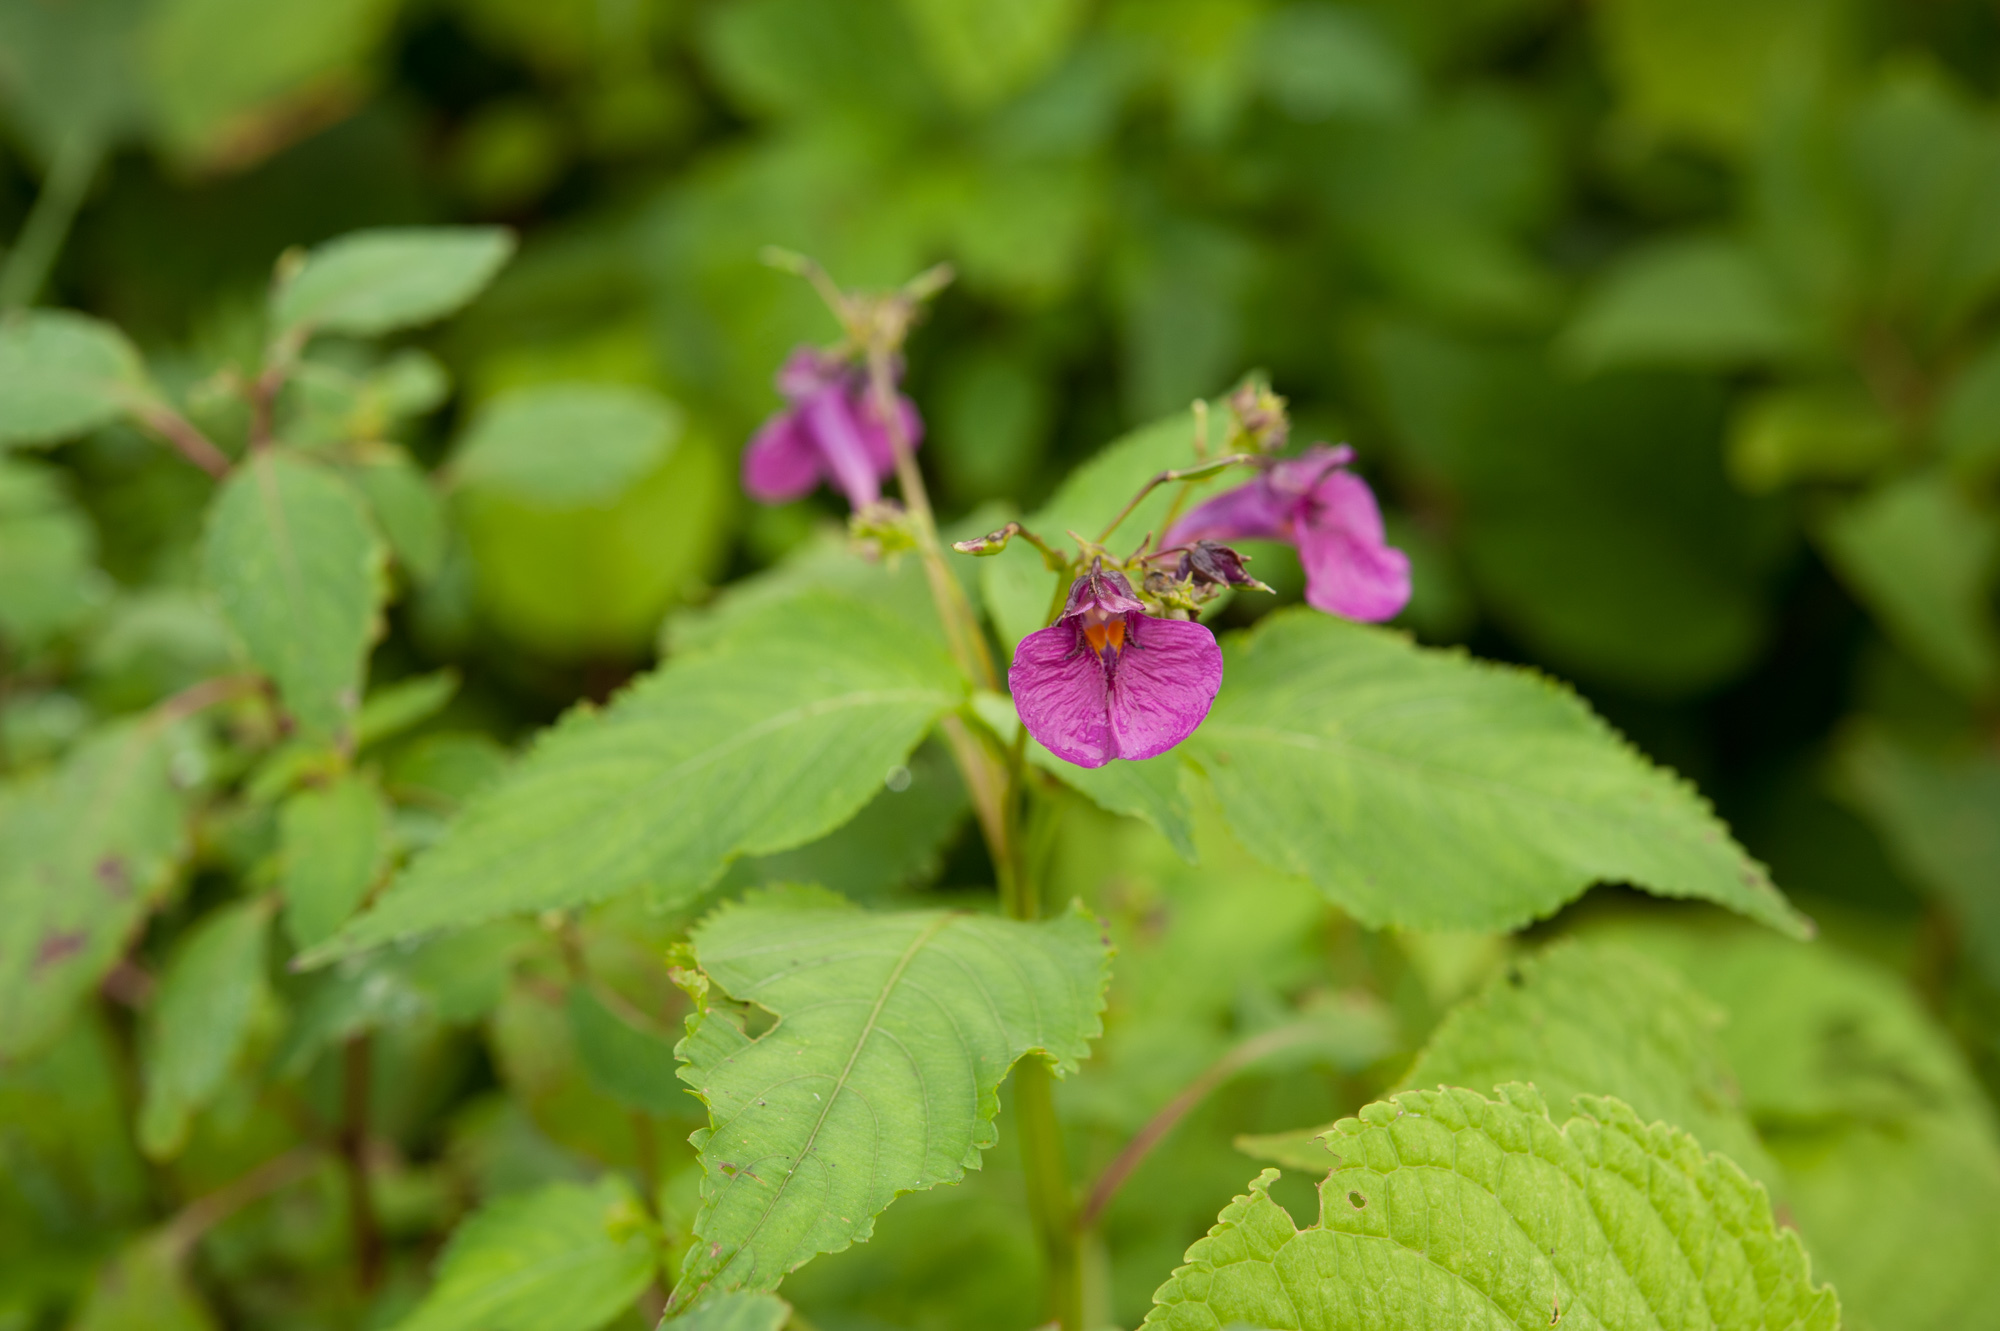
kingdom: Plantae
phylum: Tracheophyta
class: Magnoliopsida
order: Ericales
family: Balsaminaceae
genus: Impatiens
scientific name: Impatiens textorii
